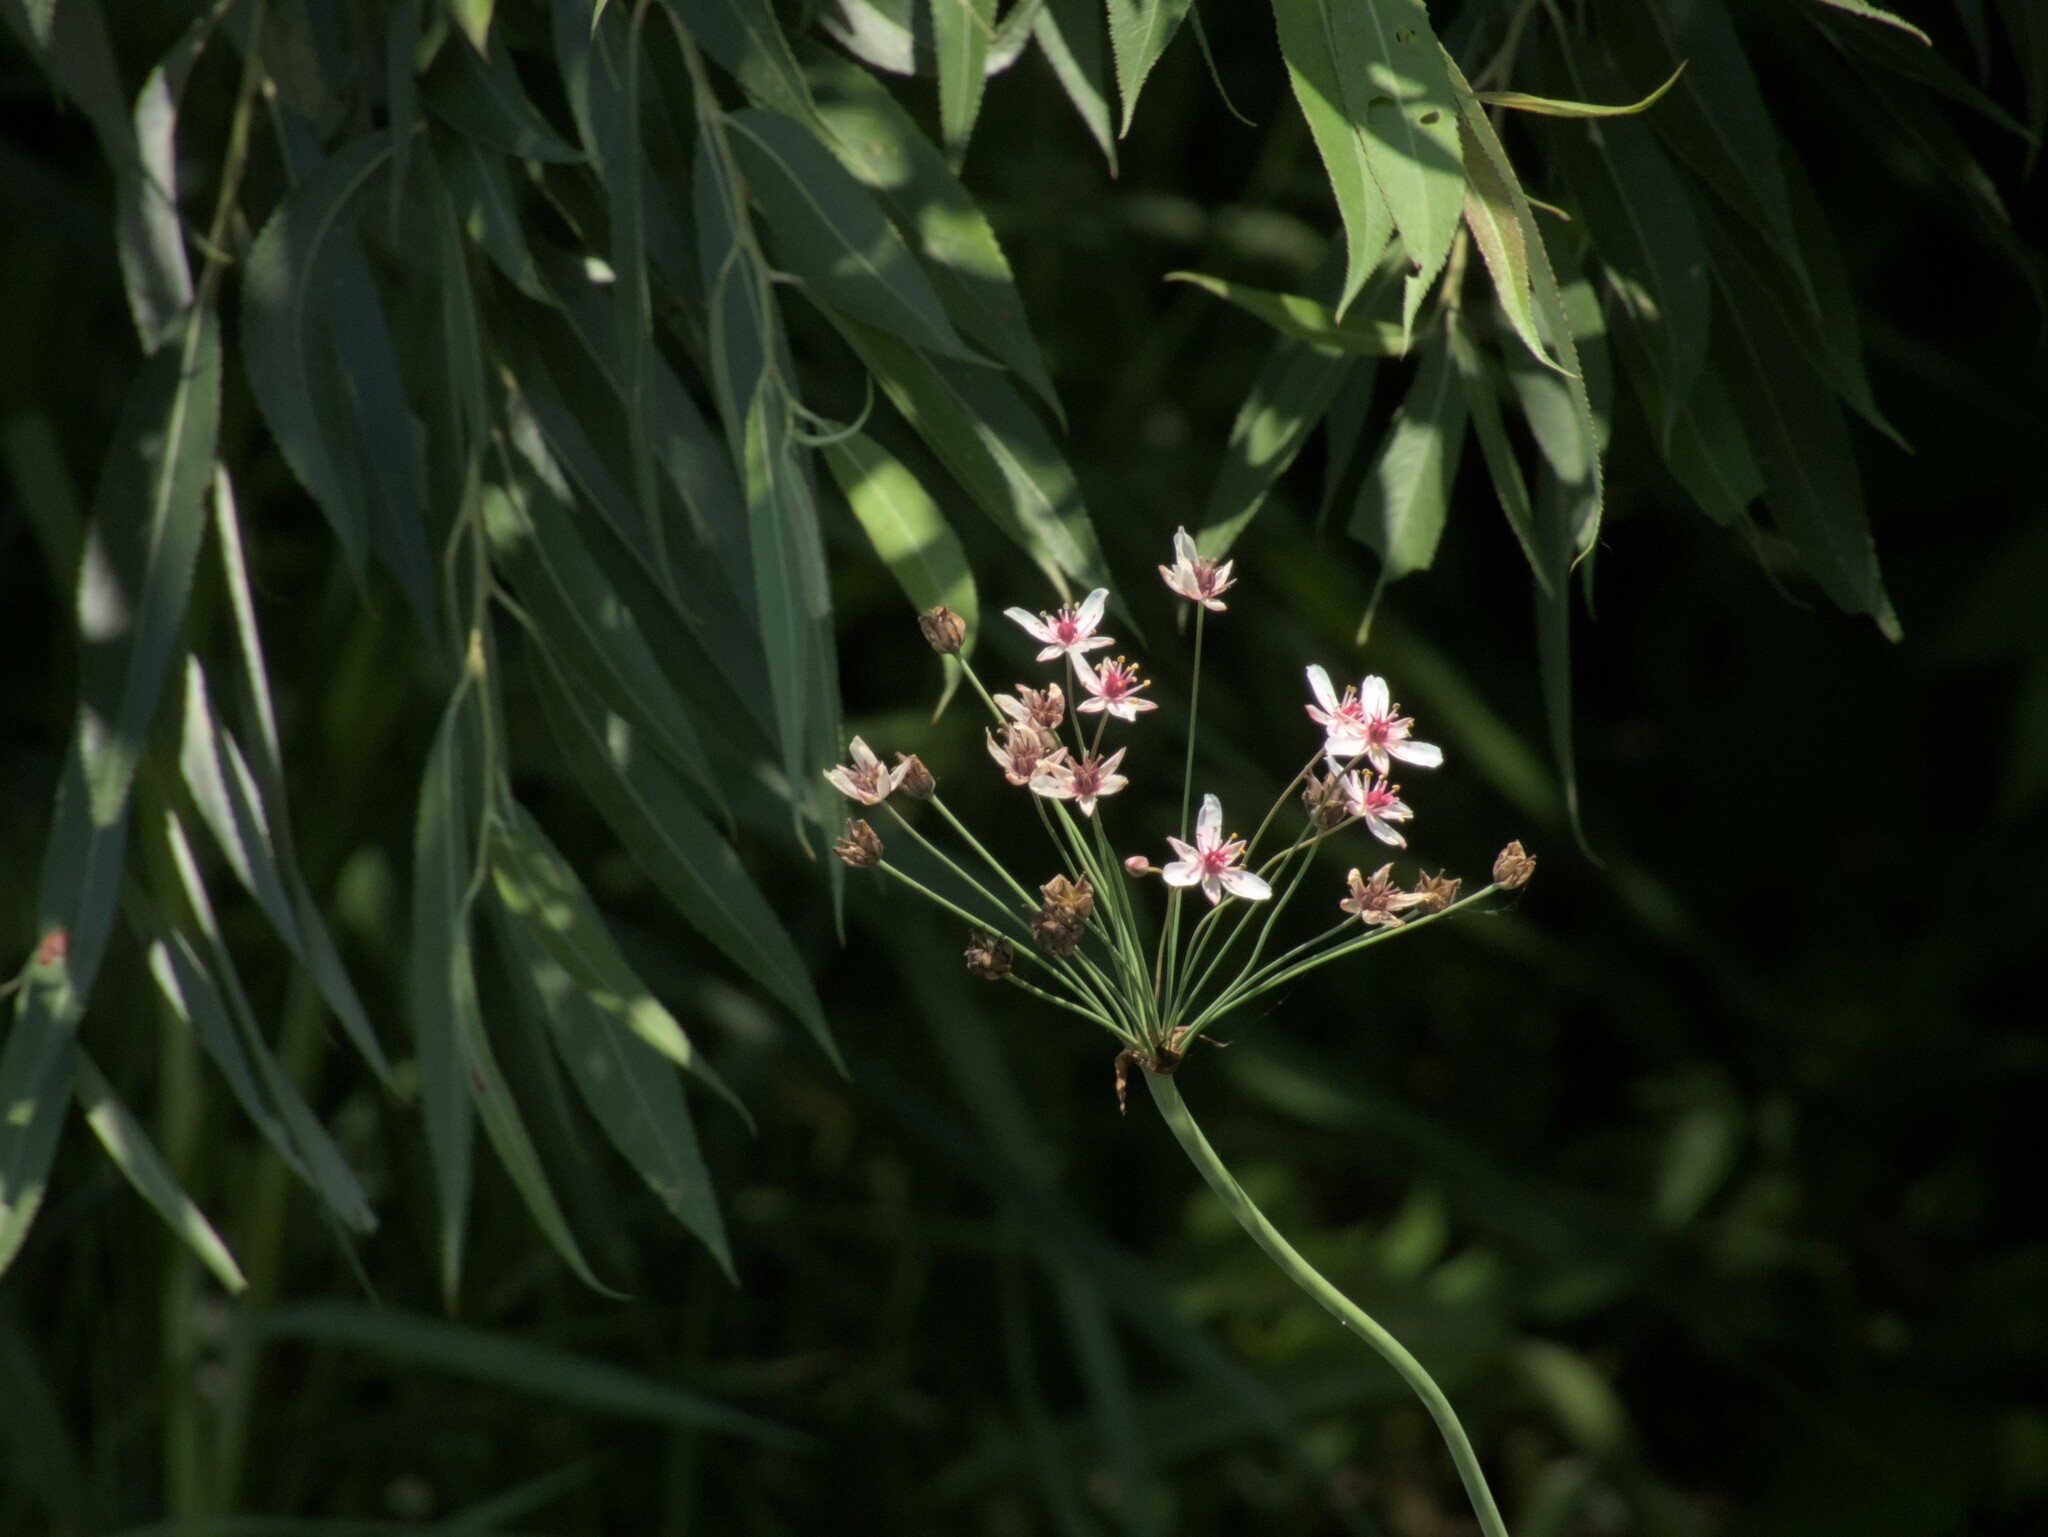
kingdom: Plantae
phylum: Tracheophyta
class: Liliopsida
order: Alismatales
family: Butomaceae
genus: Butomus
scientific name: Butomus umbellatus
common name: Flowering-rush
